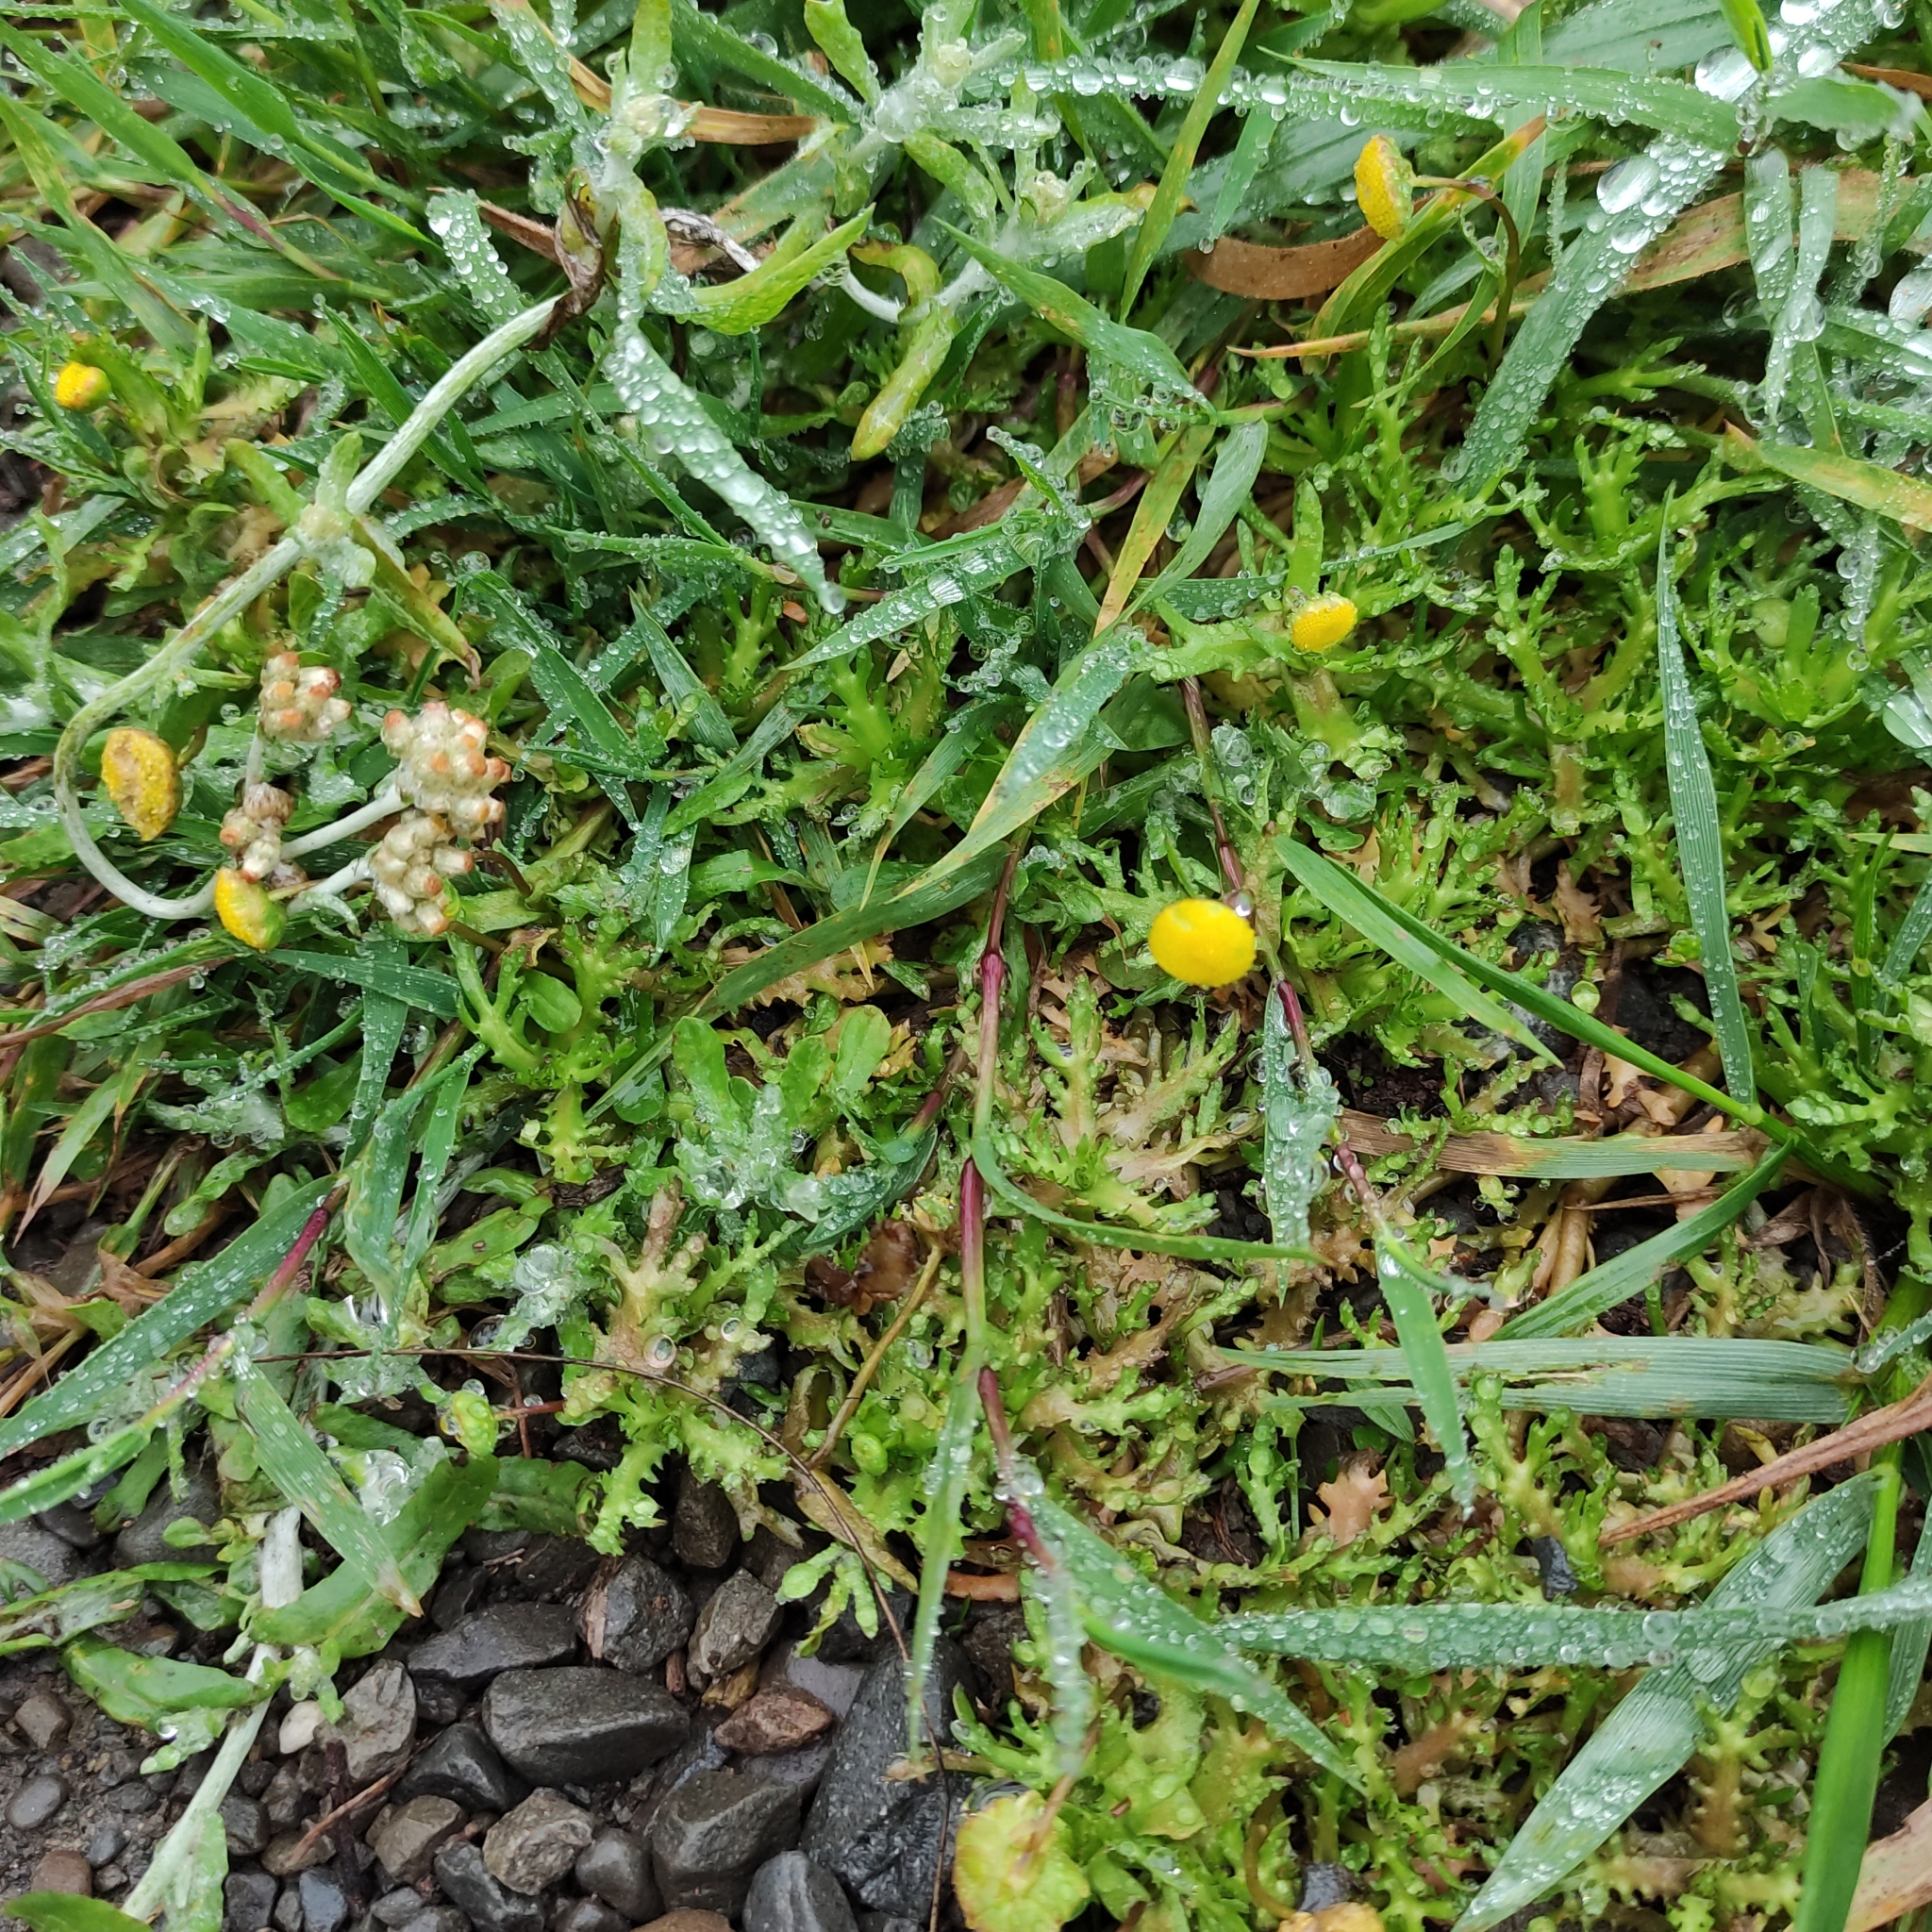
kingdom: Plantae
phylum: Tracheophyta
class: Magnoliopsida
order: Asterales
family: Asteraceae
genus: Cotula
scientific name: Cotula coronopifolia
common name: Buttonweed
